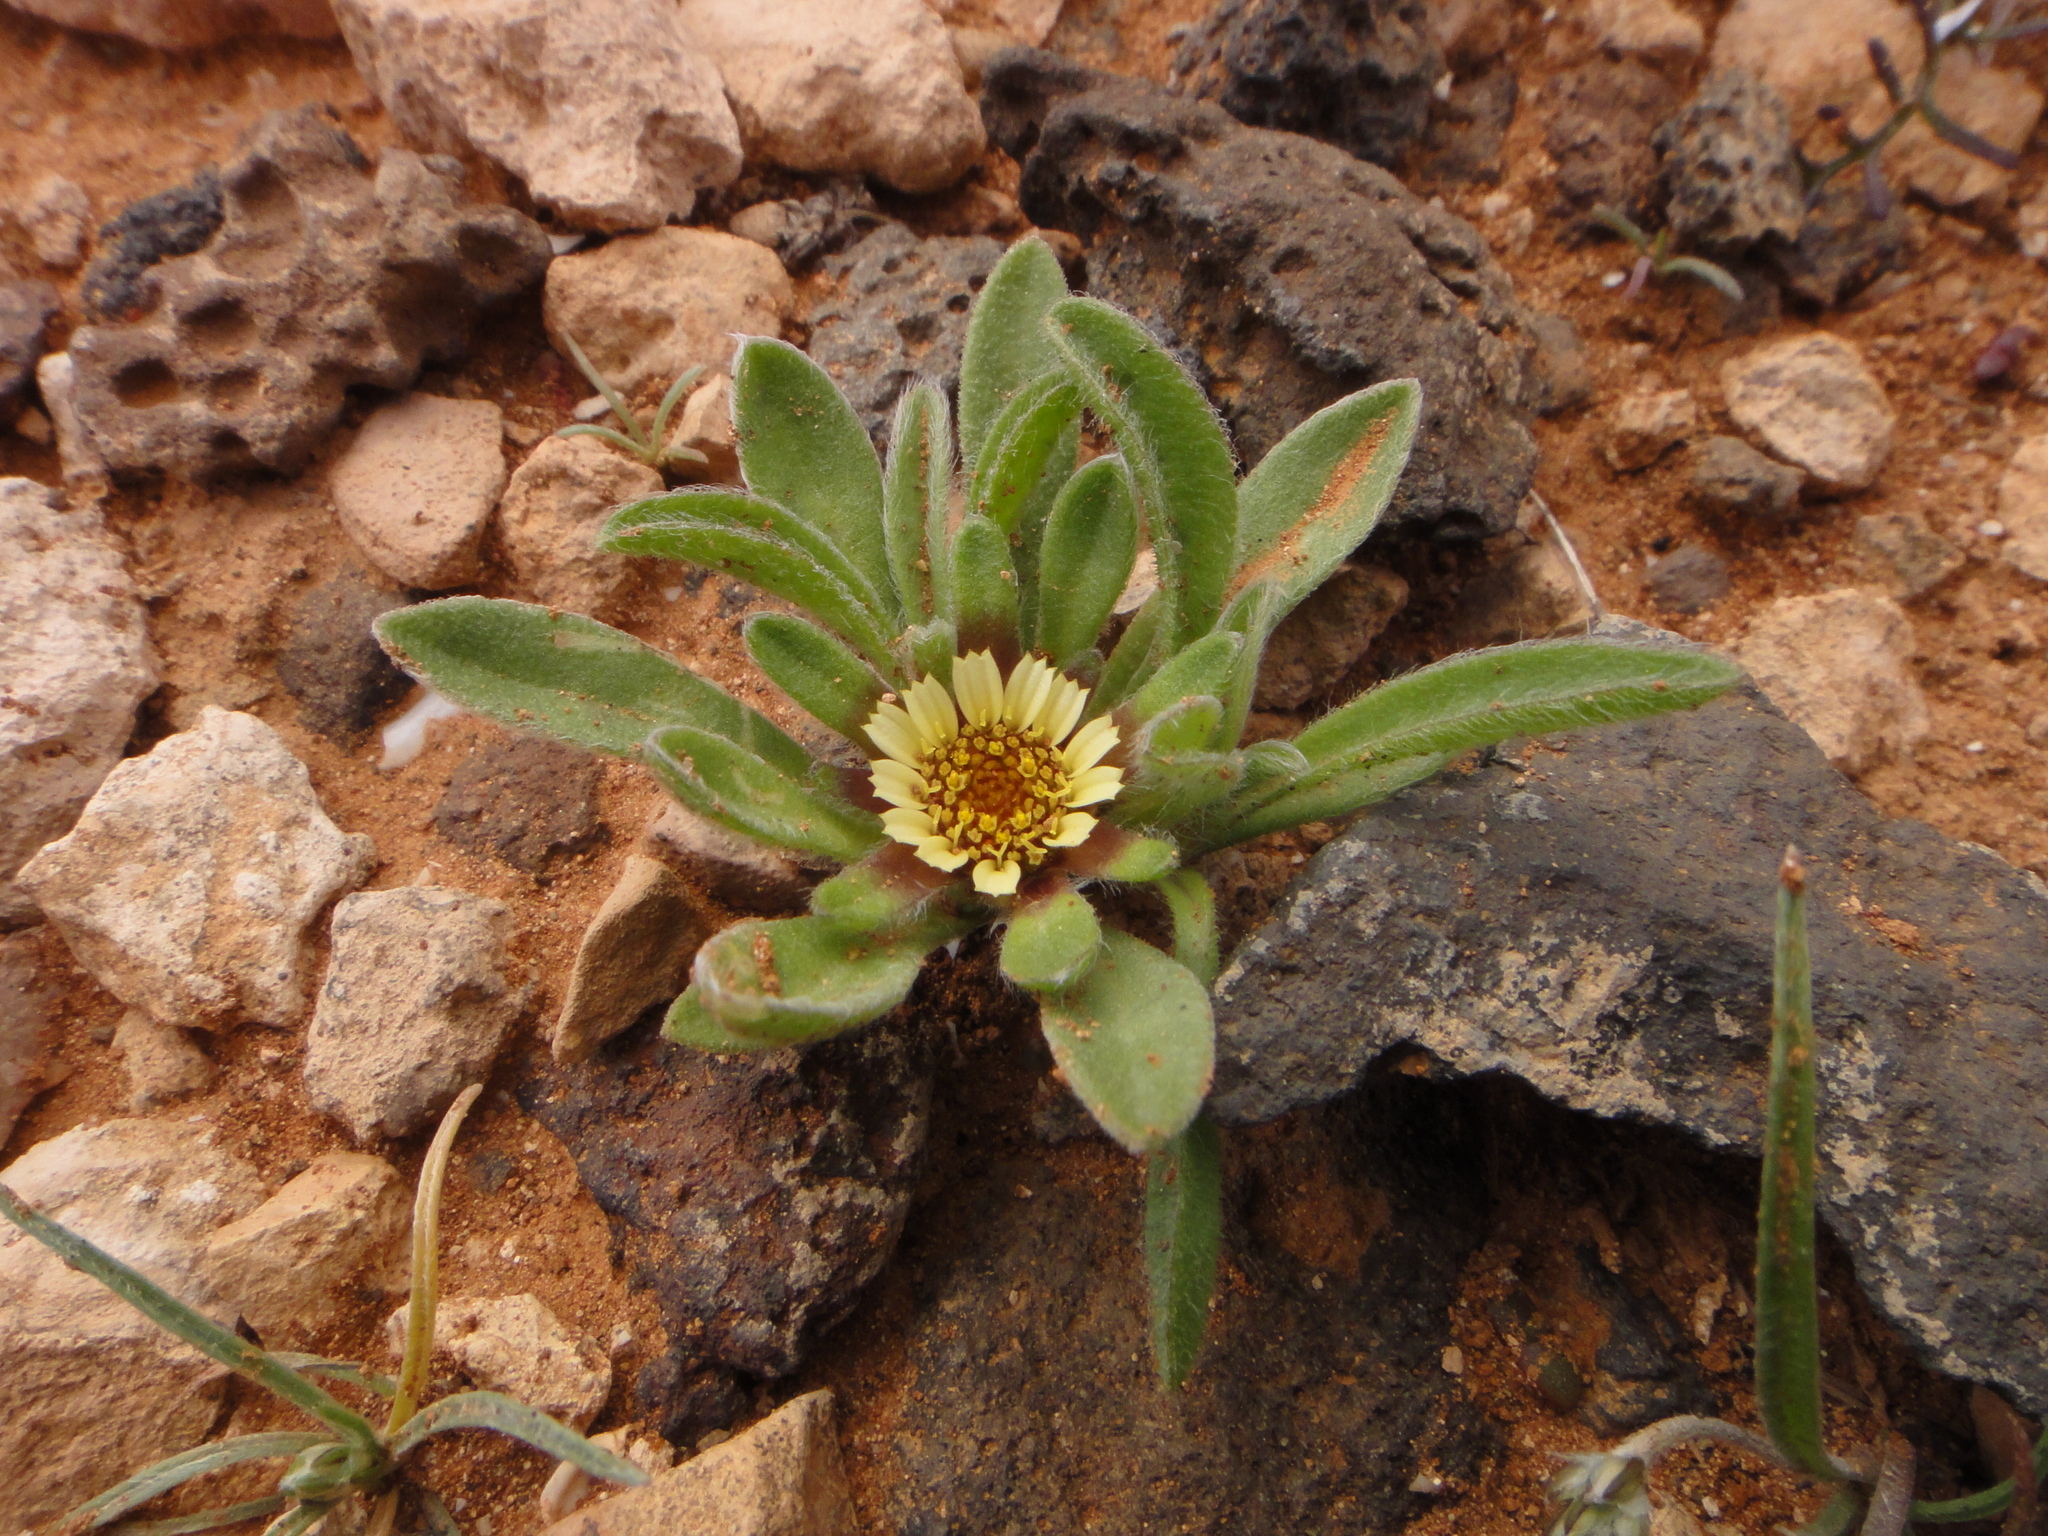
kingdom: Plantae
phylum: Tracheophyta
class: Magnoliopsida
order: Asterales
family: Asteraceae
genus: Pallenis
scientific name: Pallenis hierochuntica
